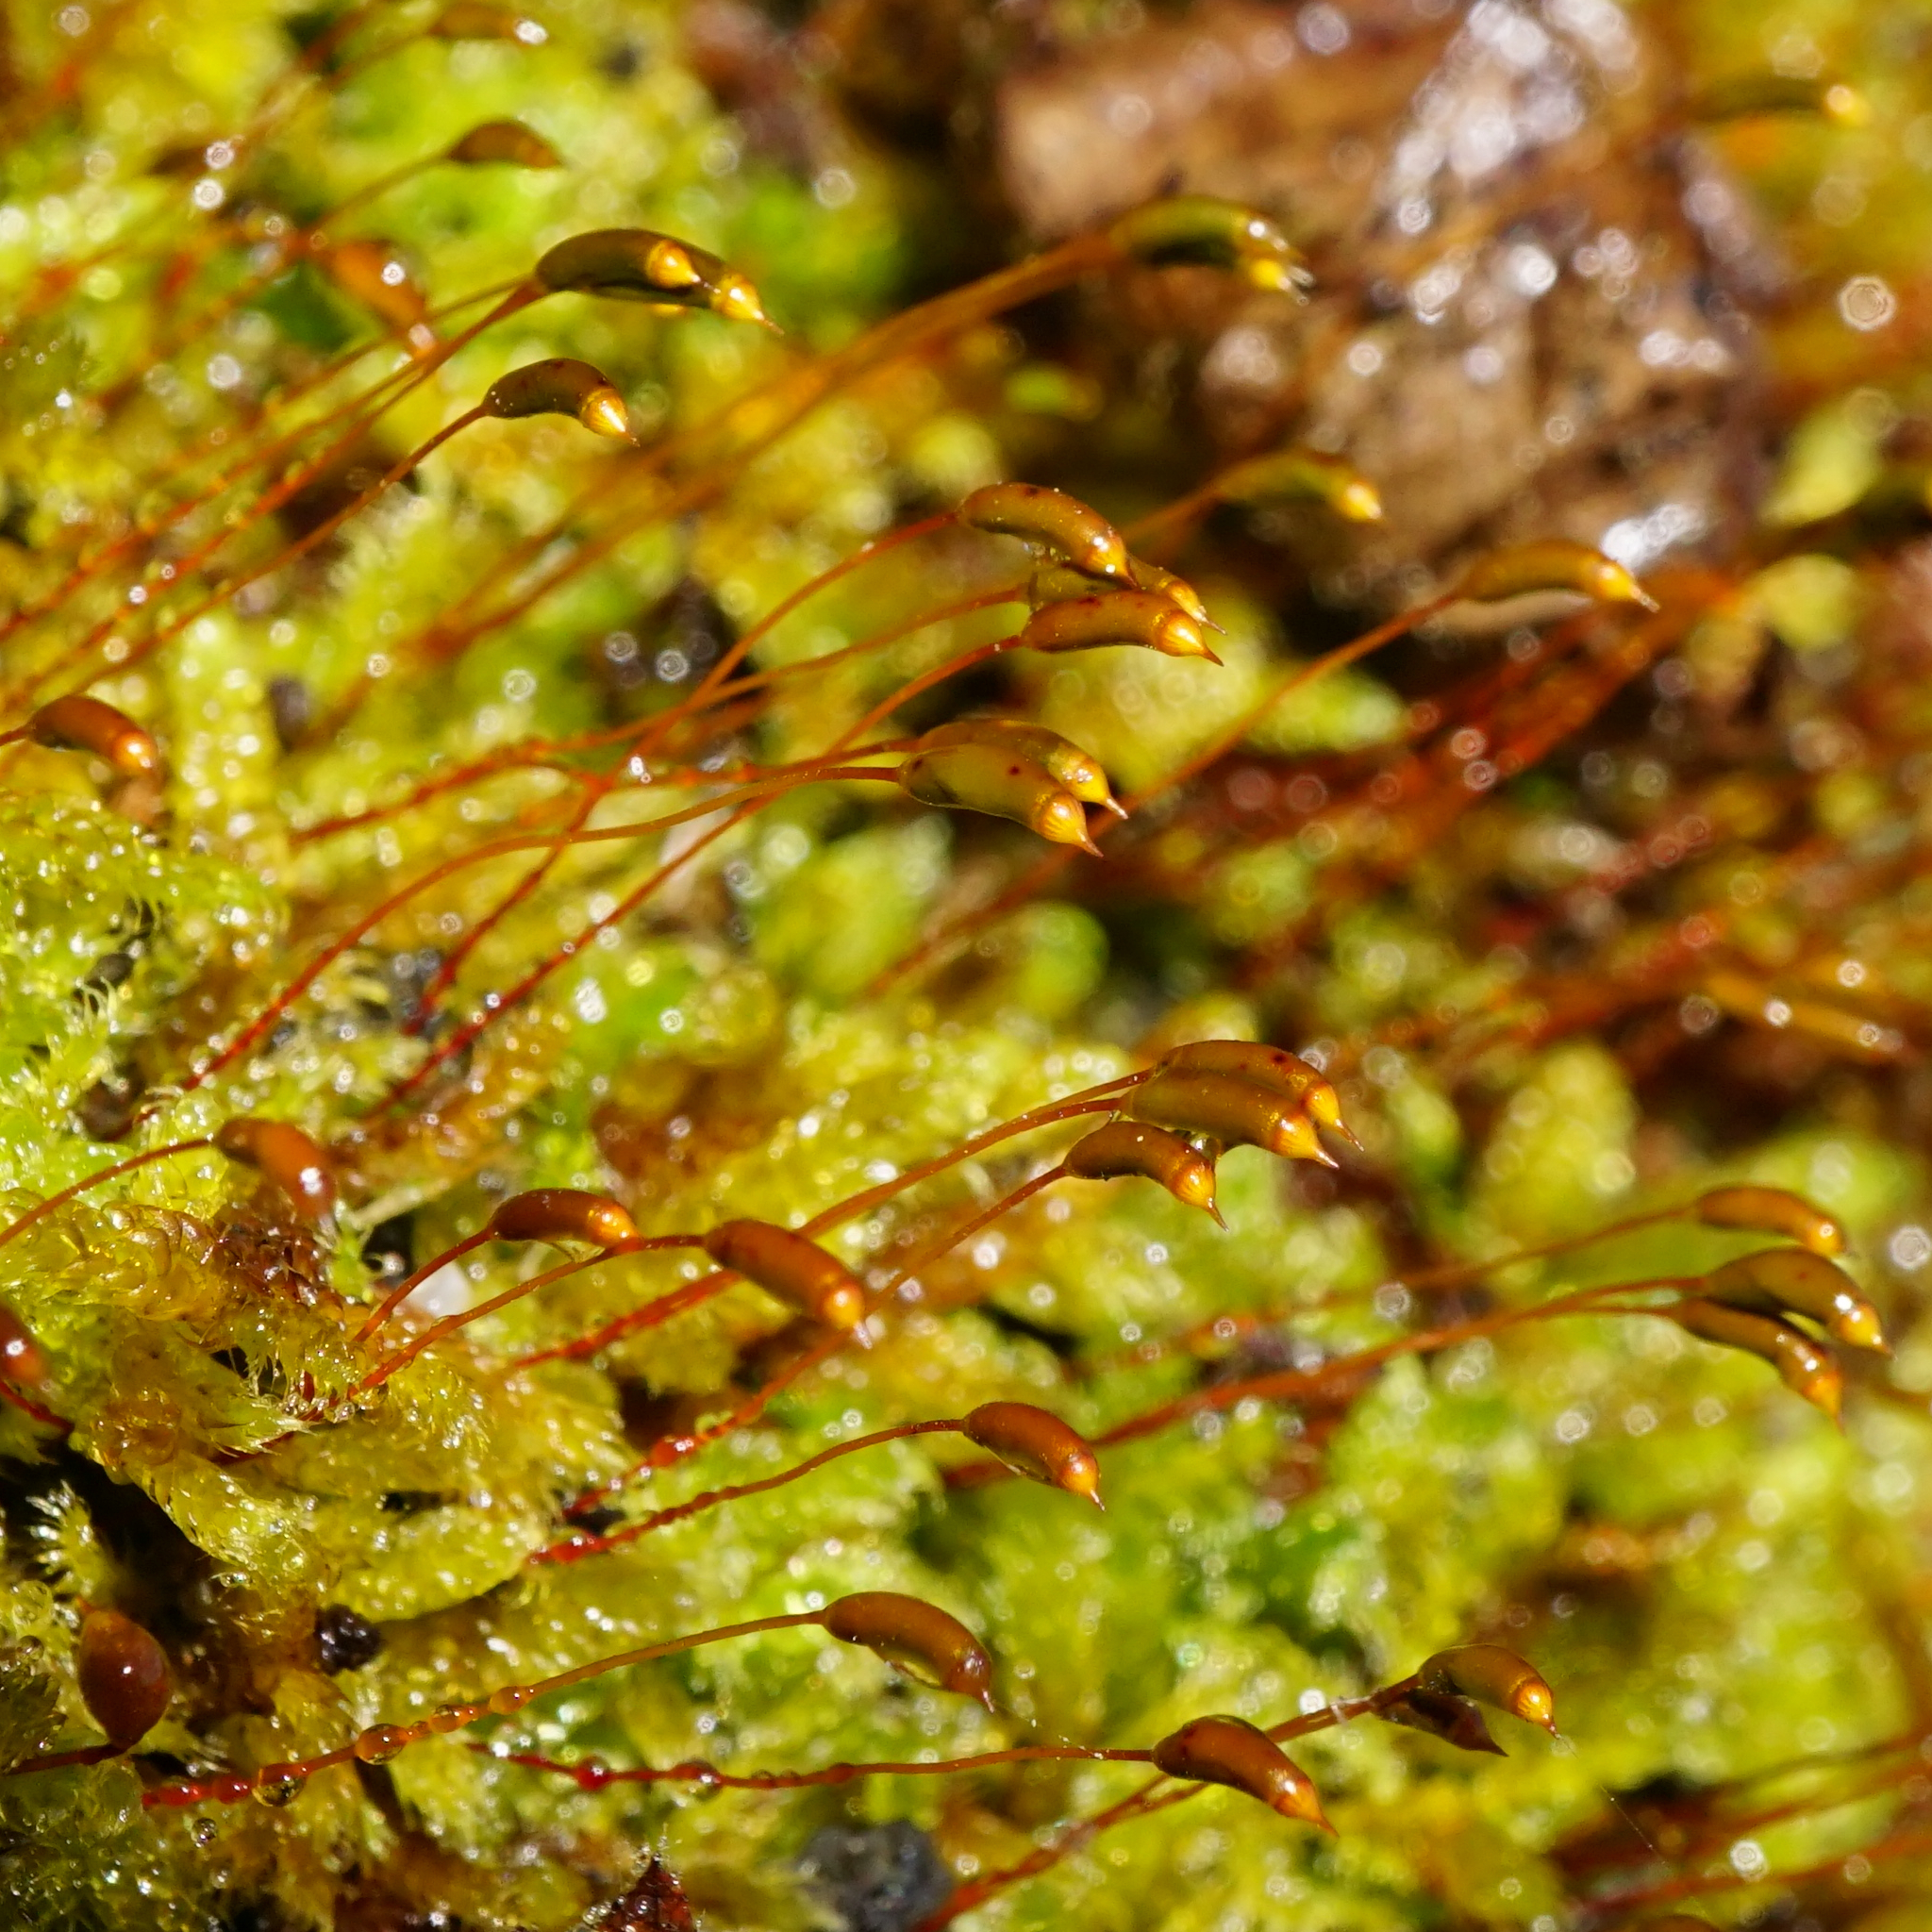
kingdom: Plantae
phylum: Bryophyta
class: Bryopsida
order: Hypnales
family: Hypnaceae
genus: Hypnum
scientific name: Hypnum cupressiforme
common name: Cypress-leaved plait-moss
